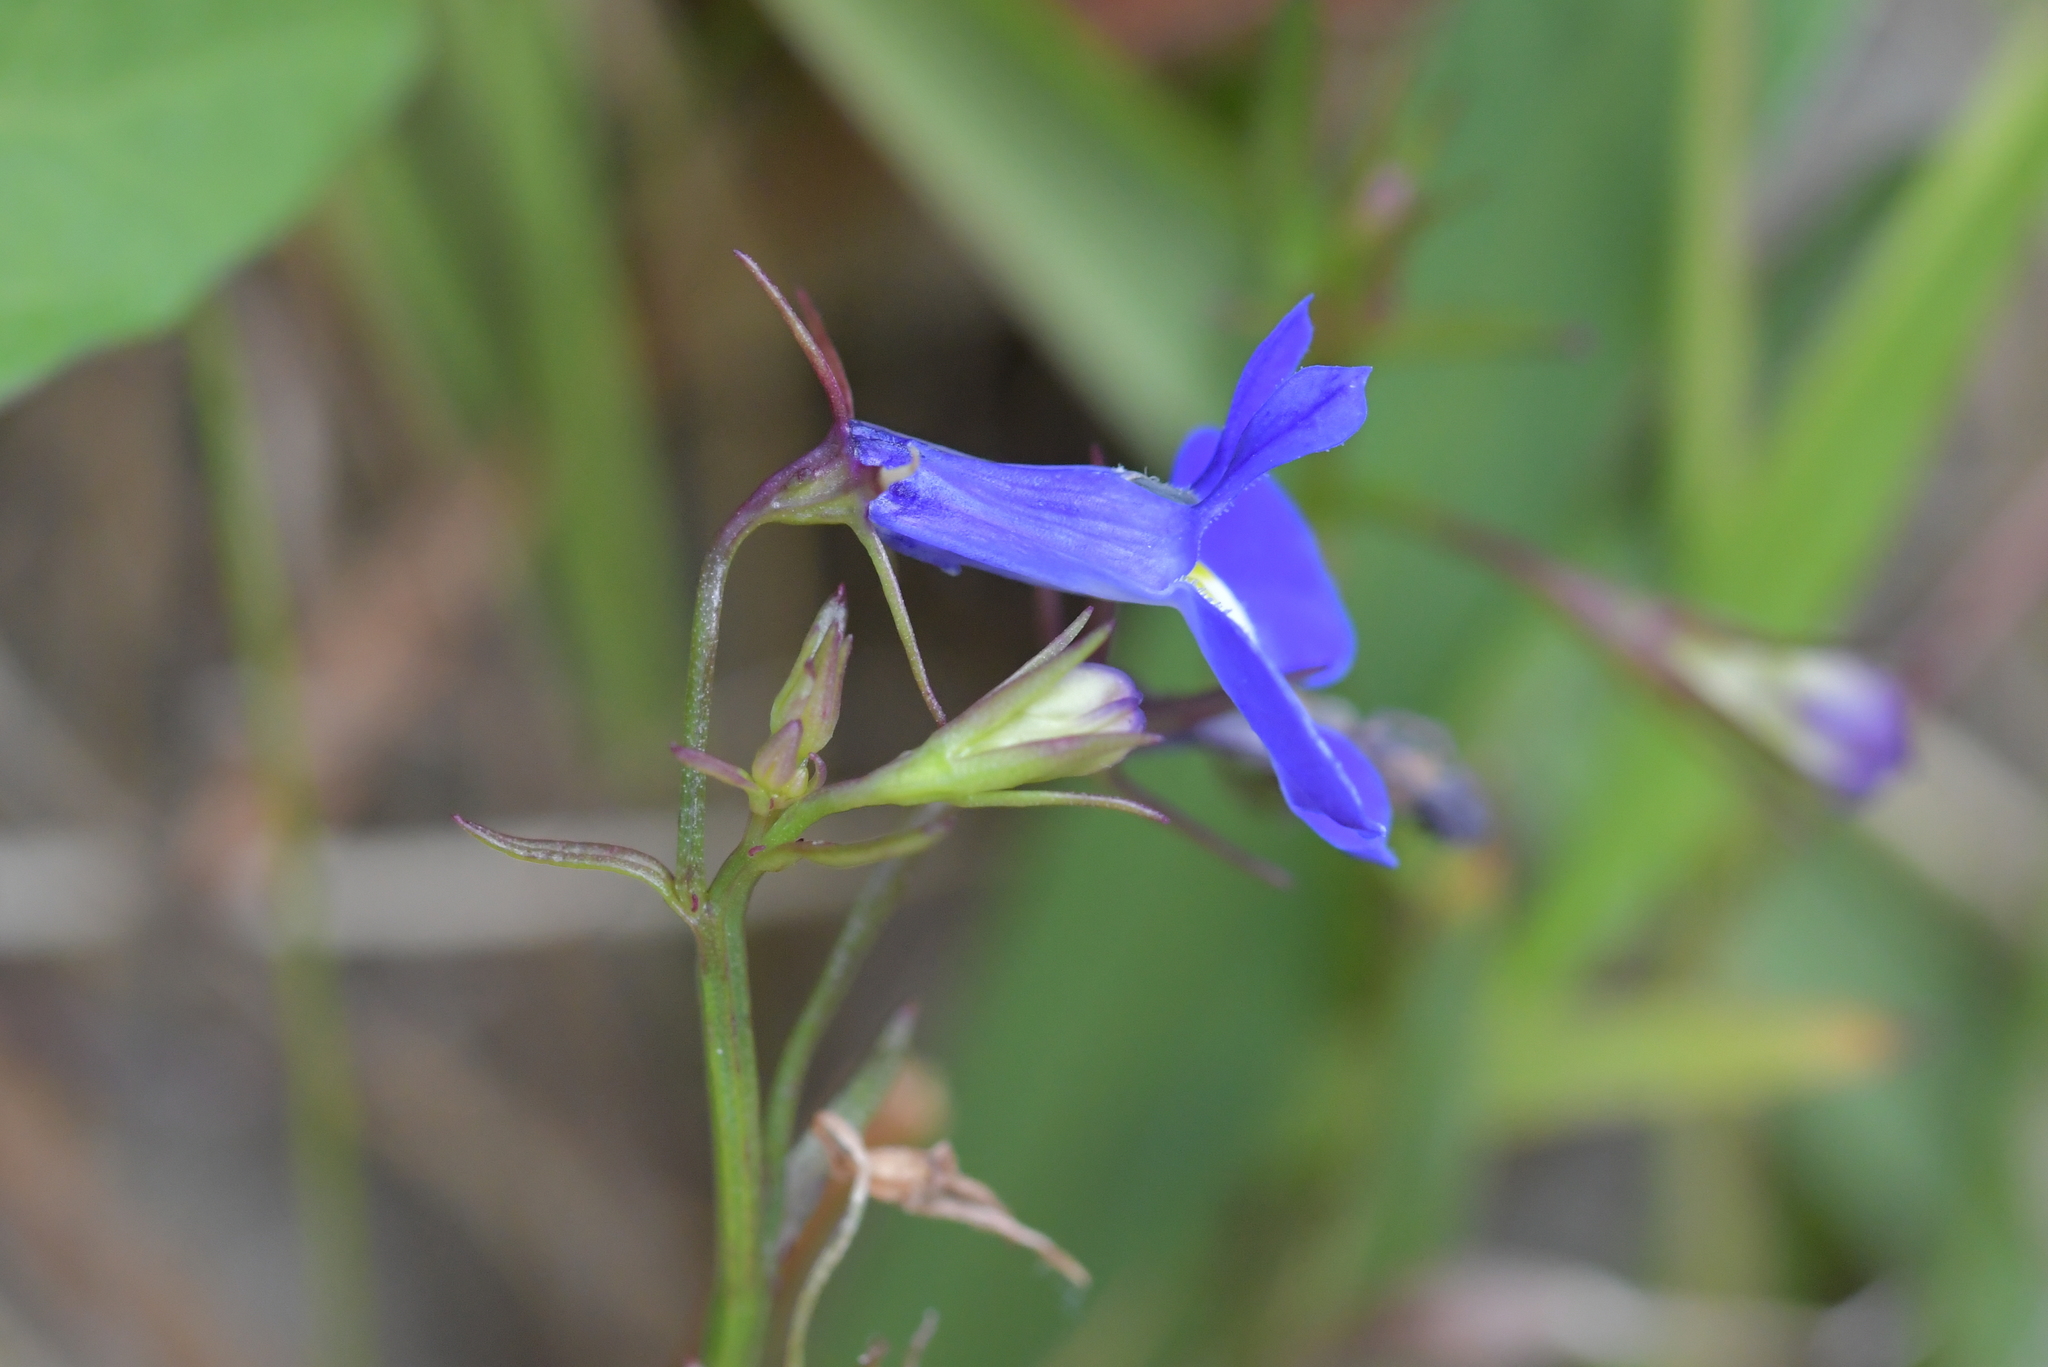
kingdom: Plantae
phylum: Tracheophyta
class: Magnoliopsida
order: Asterales
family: Campanulaceae
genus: Lobelia
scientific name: Lobelia erinus
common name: Edging lobelia
